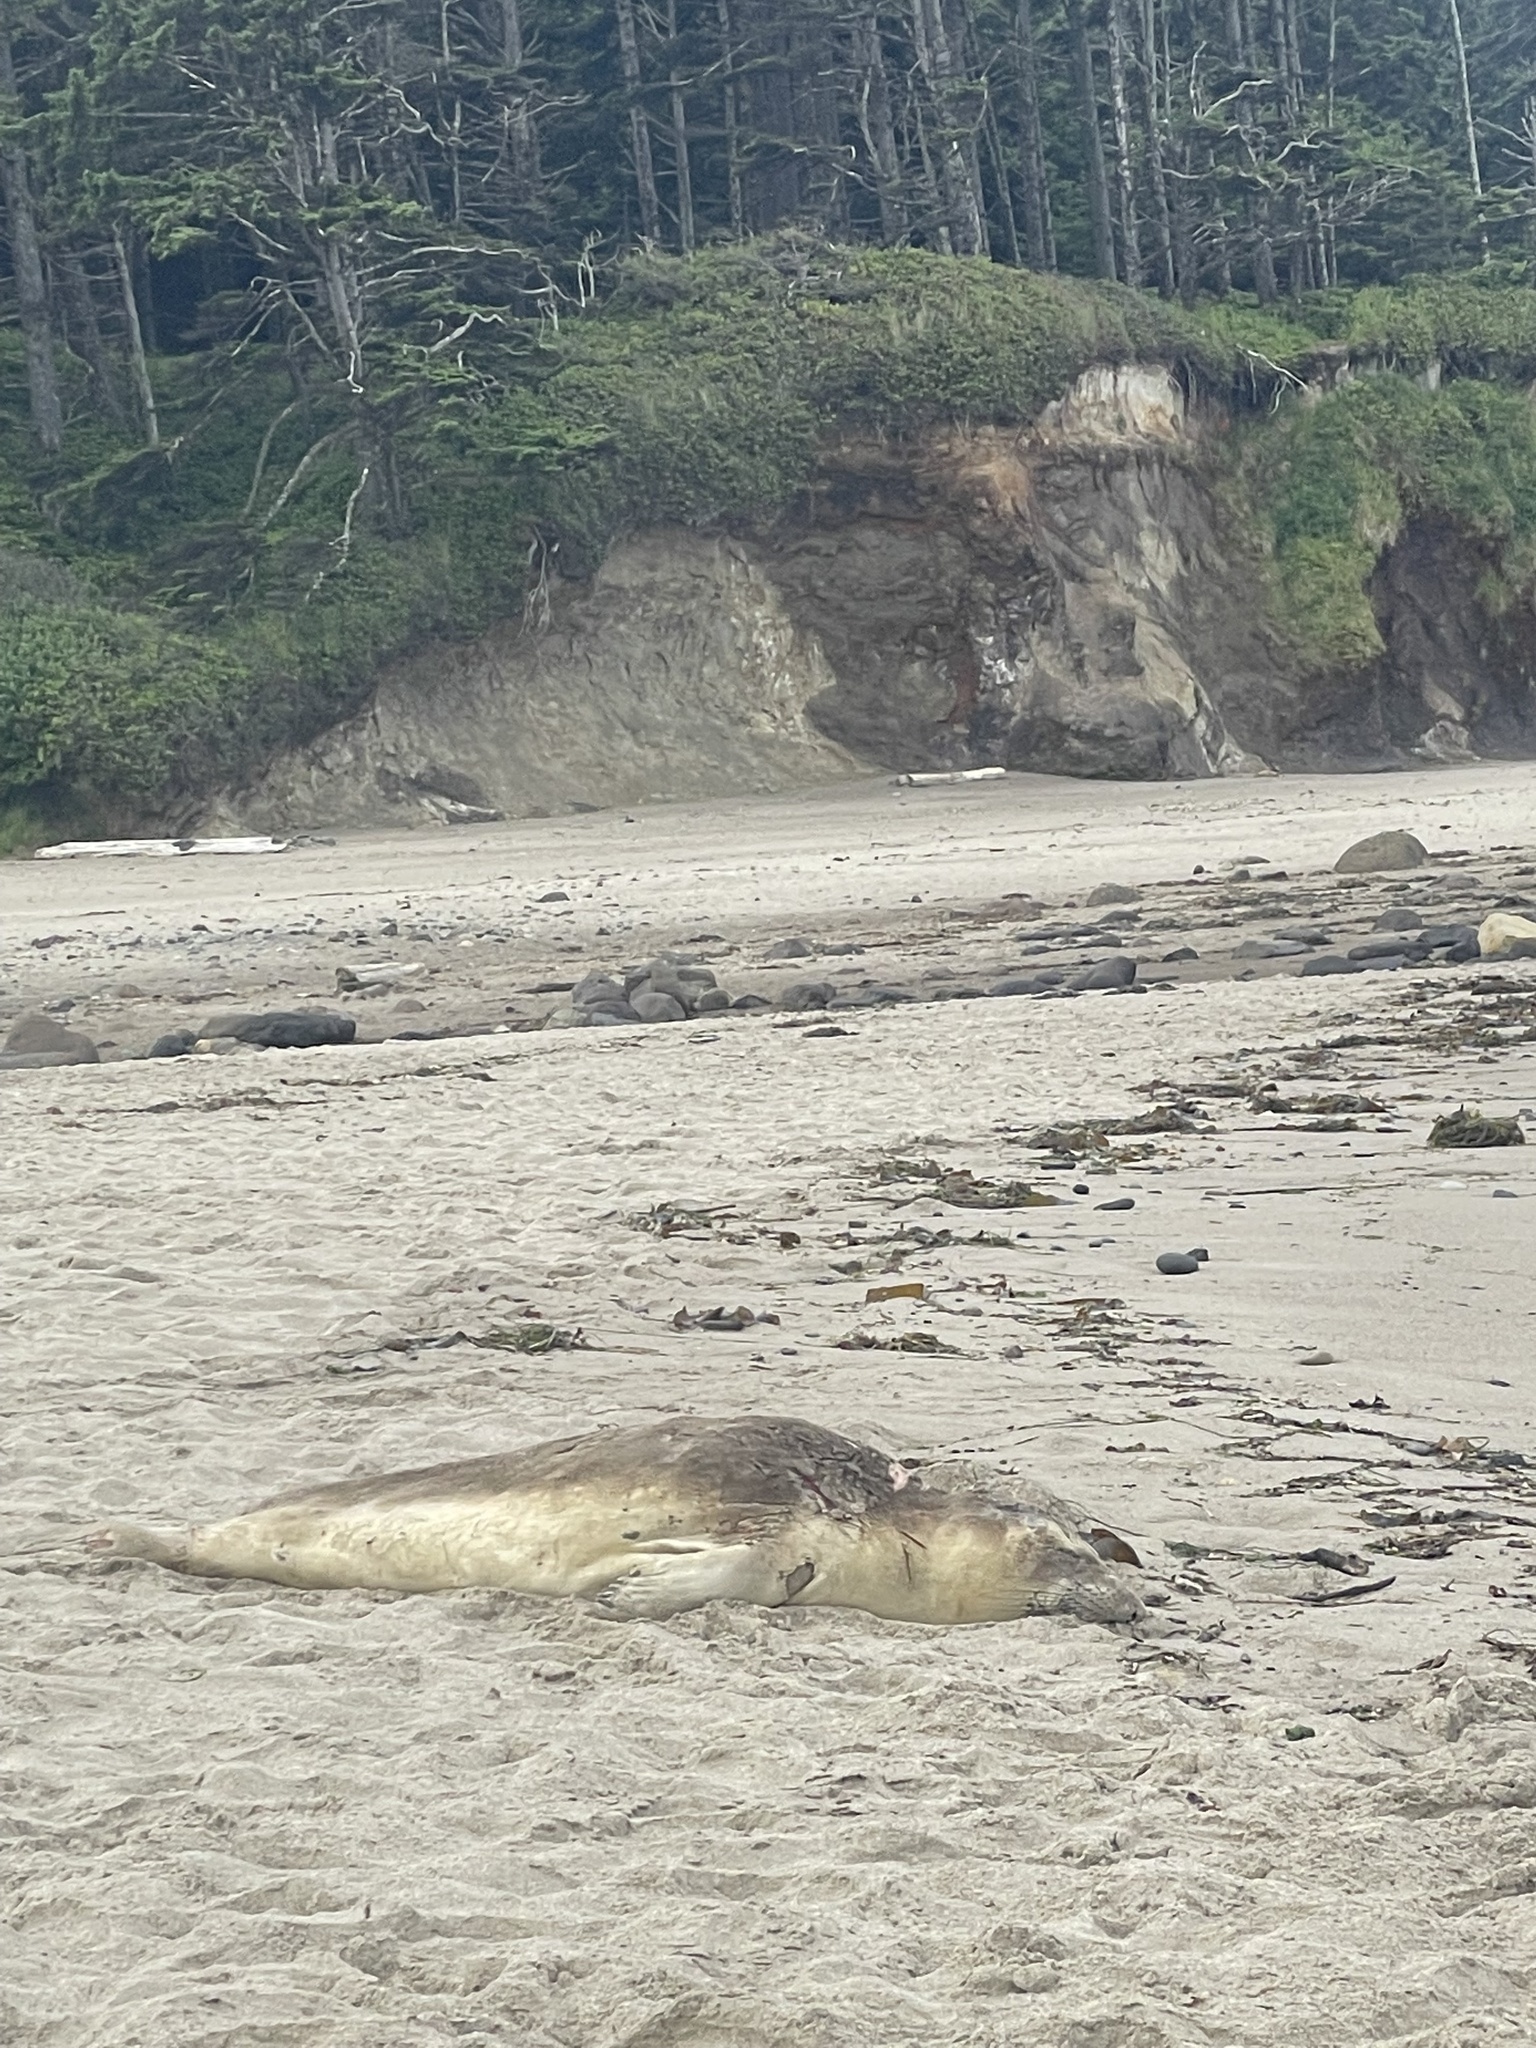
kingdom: Animalia
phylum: Chordata
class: Mammalia
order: Carnivora
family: Phocidae
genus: Mirounga
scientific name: Mirounga angustirostris
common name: Northern elephant seal
